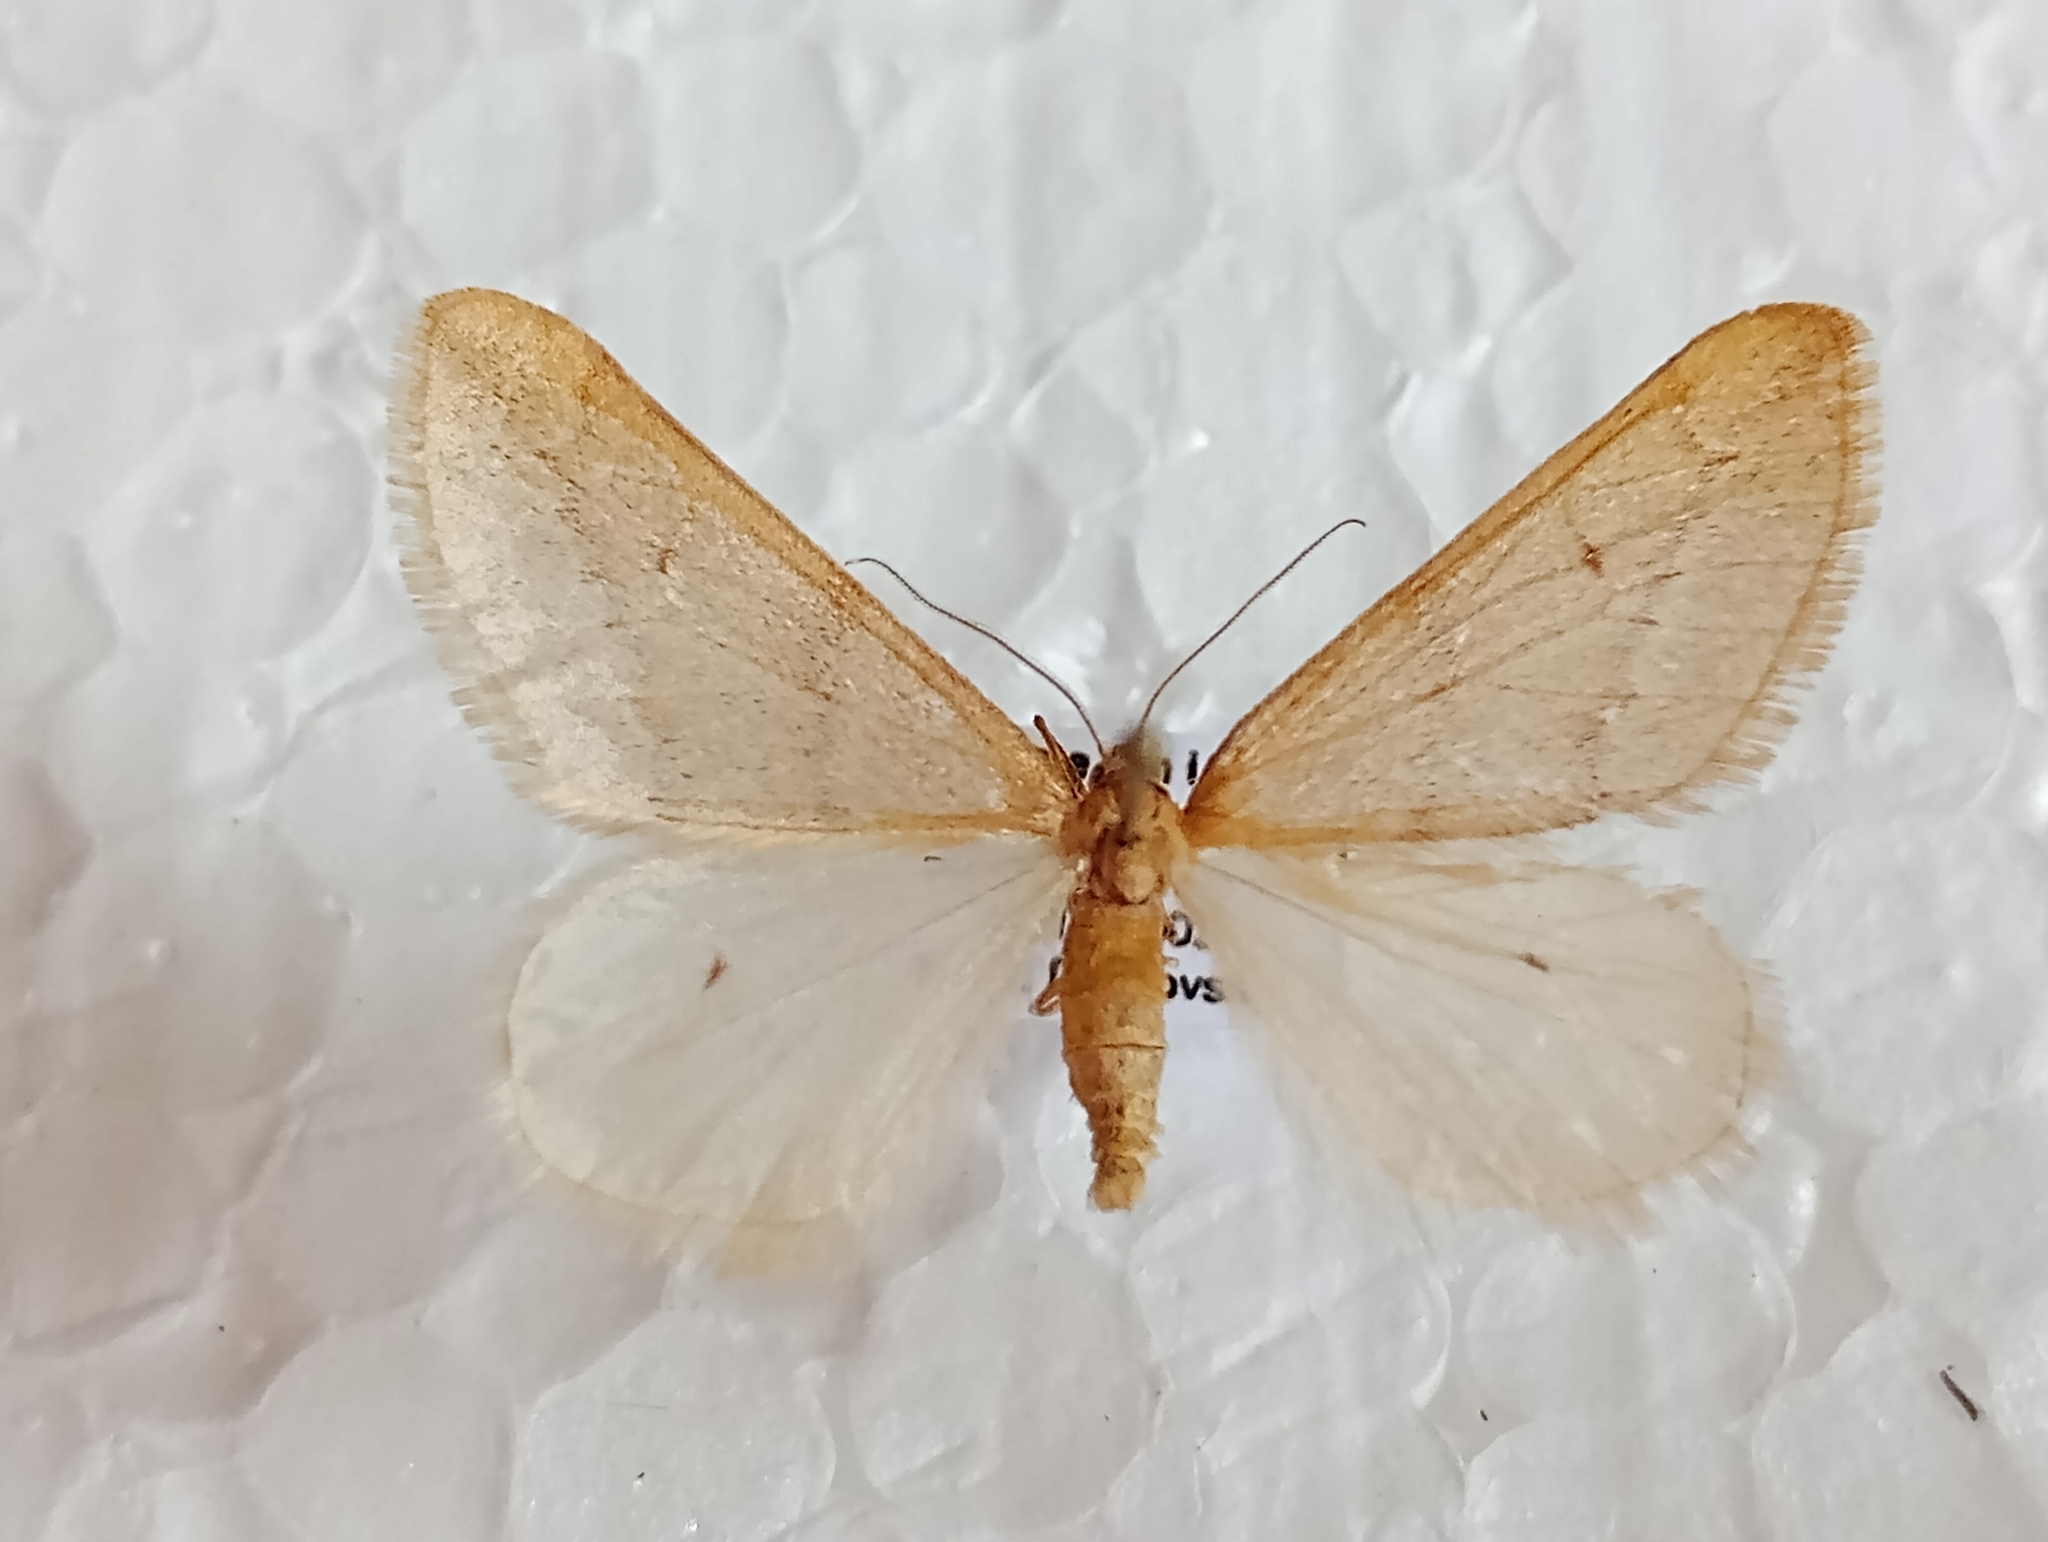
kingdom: Animalia
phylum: Arthropoda
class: Insecta
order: Lepidoptera
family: Geometridae
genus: Alsophila
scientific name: Alsophila aceraria
